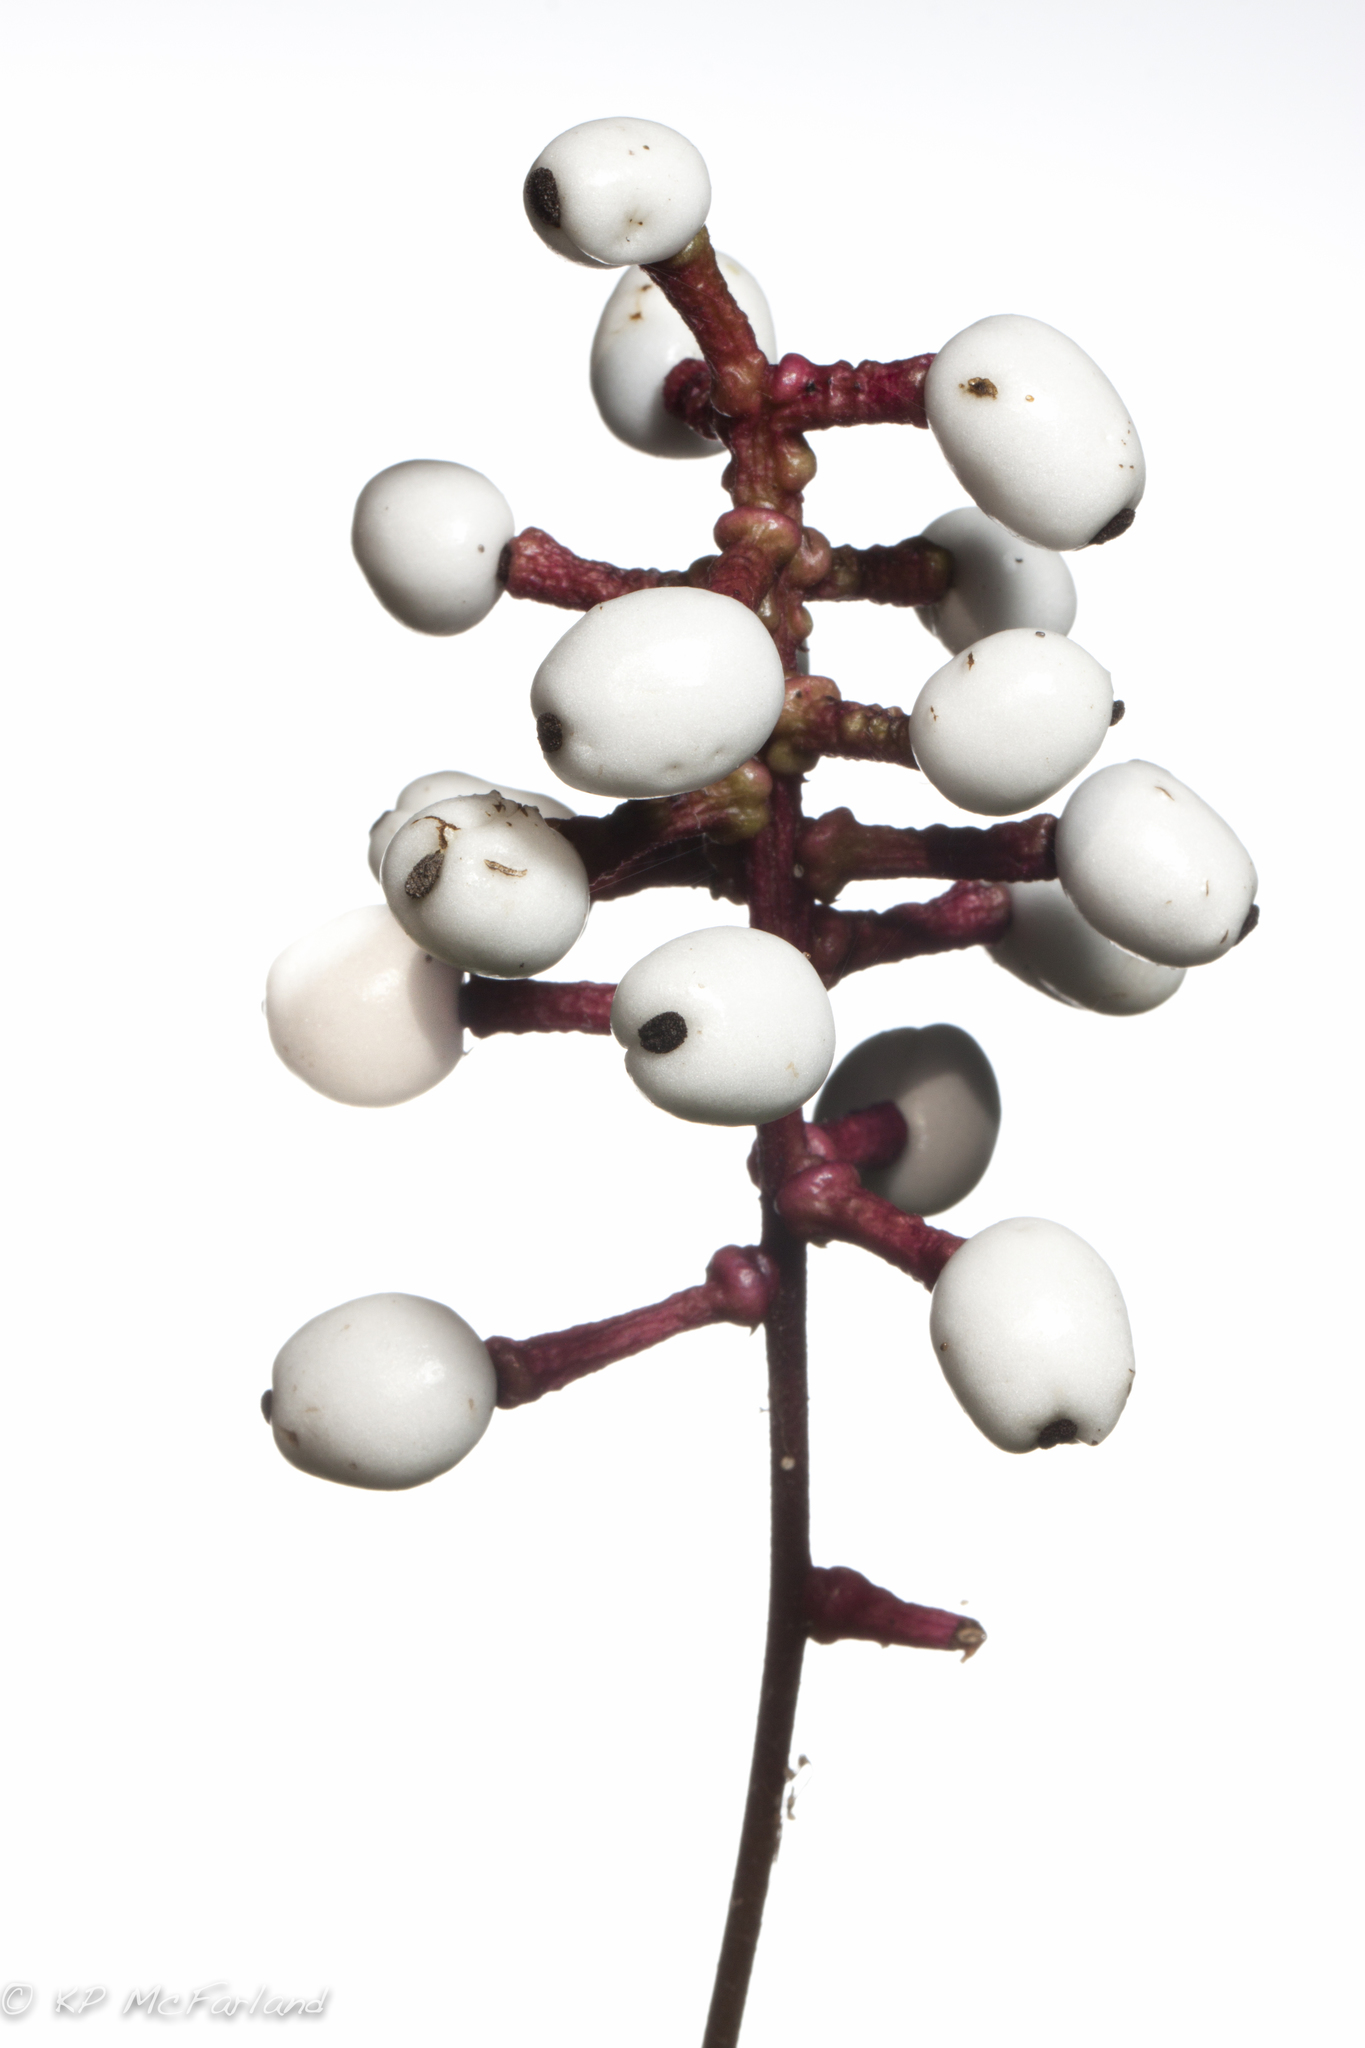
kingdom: Plantae
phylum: Tracheophyta
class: Magnoliopsida
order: Ranunculales
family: Ranunculaceae
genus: Actaea
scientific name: Actaea pachypoda
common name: Doll's-eyes
